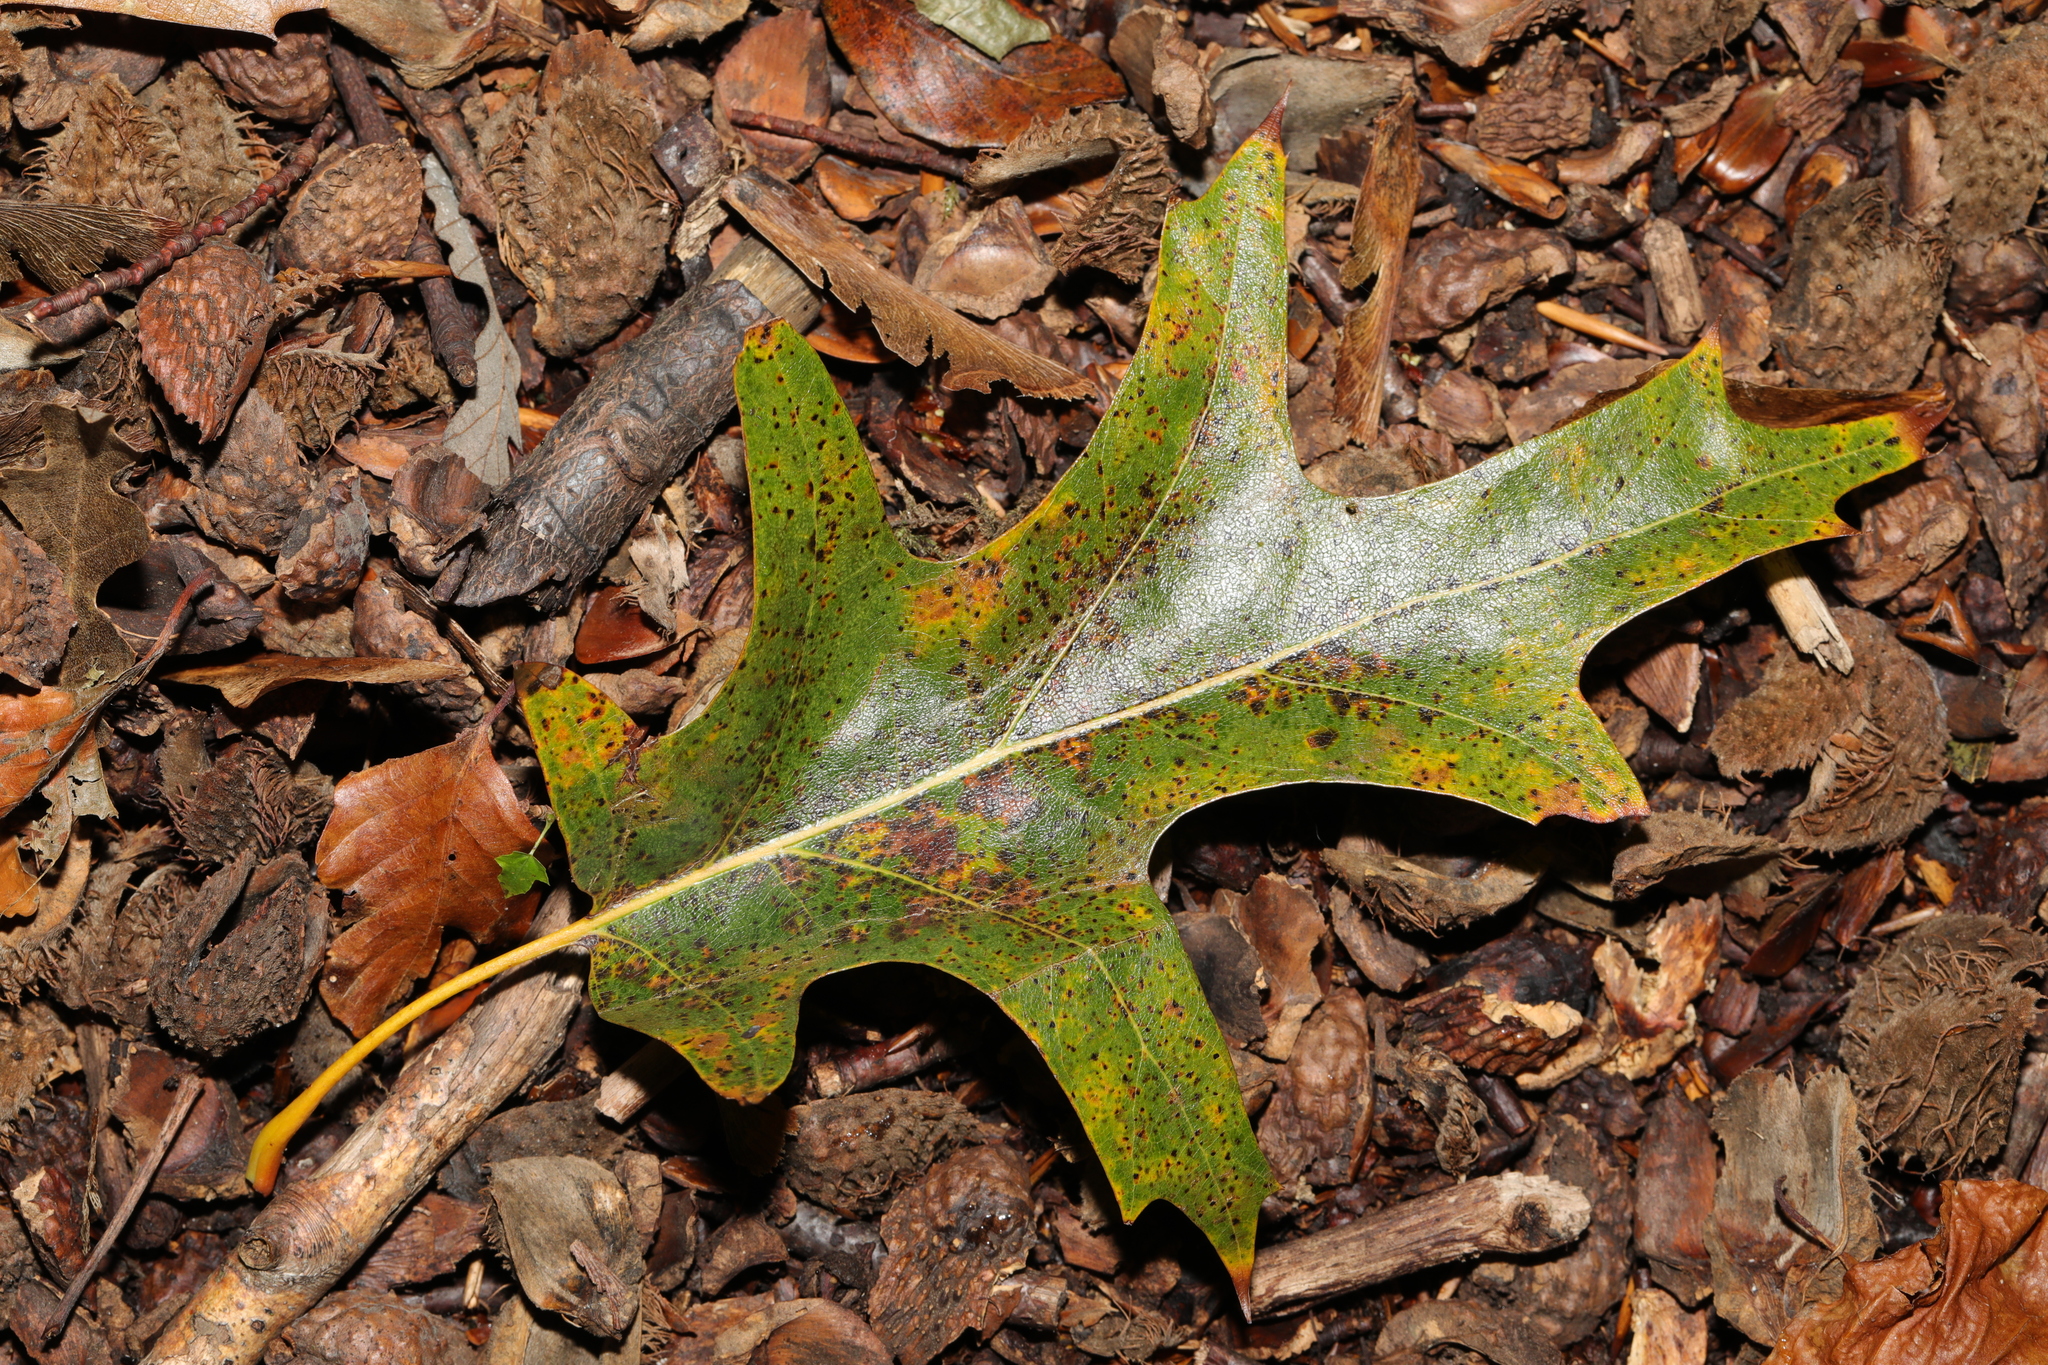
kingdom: Plantae
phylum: Tracheophyta
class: Magnoliopsida
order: Fagales
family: Fagaceae
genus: Quercus
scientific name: Quercus coccinea
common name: Scarlet oak
